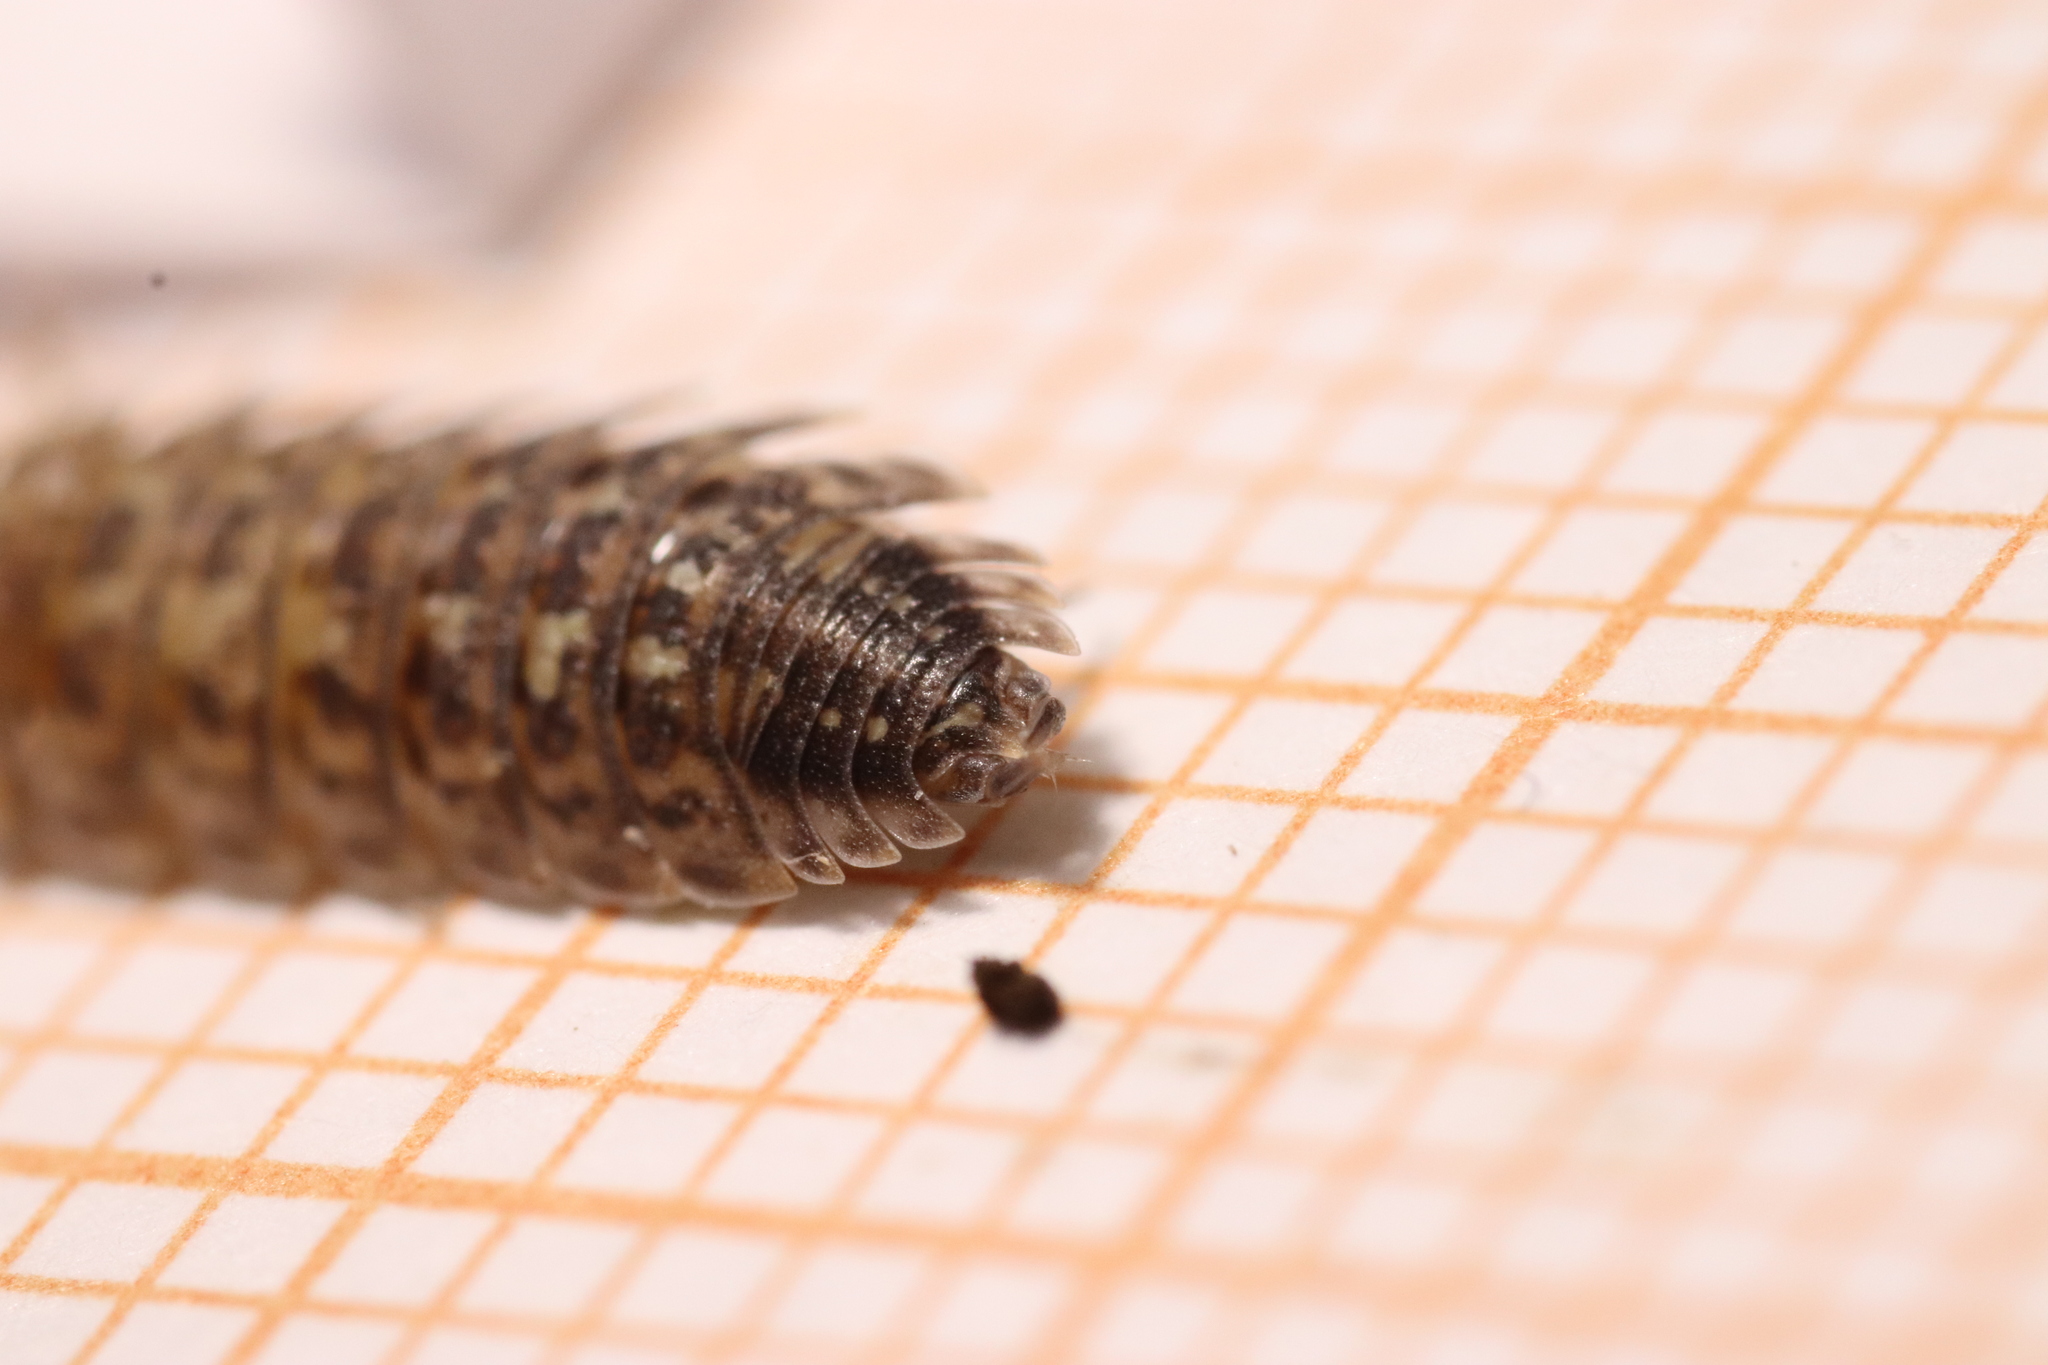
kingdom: Animalia
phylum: Arthropoda
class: Malacostraca
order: Isopoda
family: Porcellionidae
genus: Porcellio
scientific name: Porcellio spinicornis
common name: Painted woodlouse
